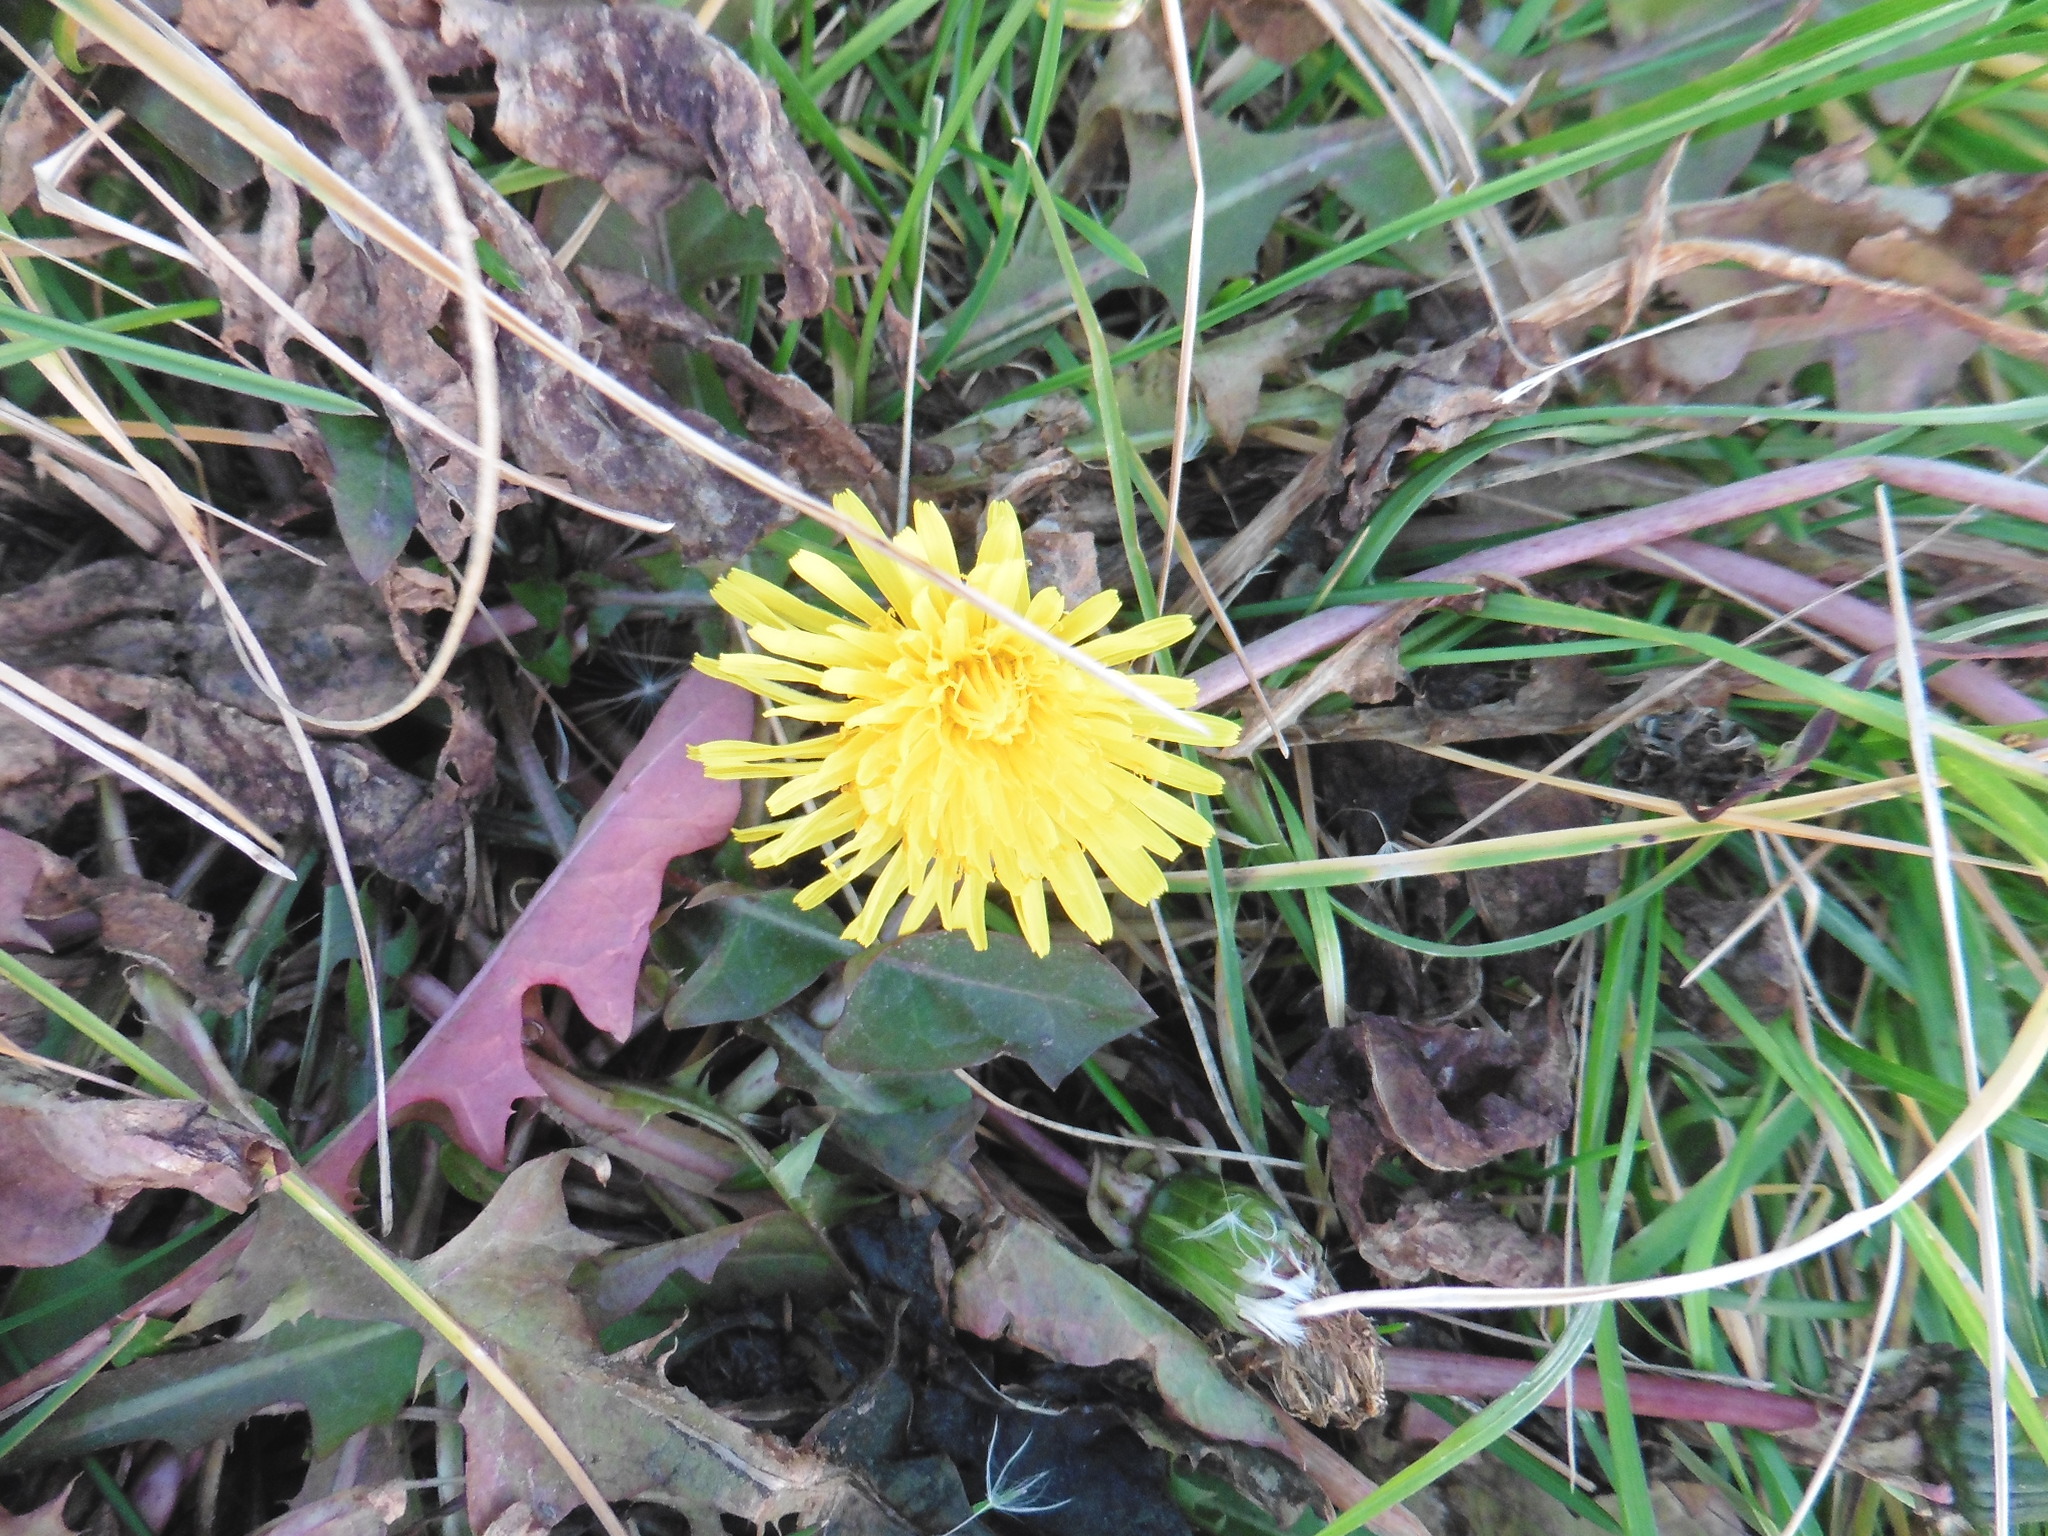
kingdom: Plantae
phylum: Tracheophyta
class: Magnoliopsida
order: Asterales
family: Asteraceae
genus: Taraxacum
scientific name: Taraxacum officinale
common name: Common dandelion
